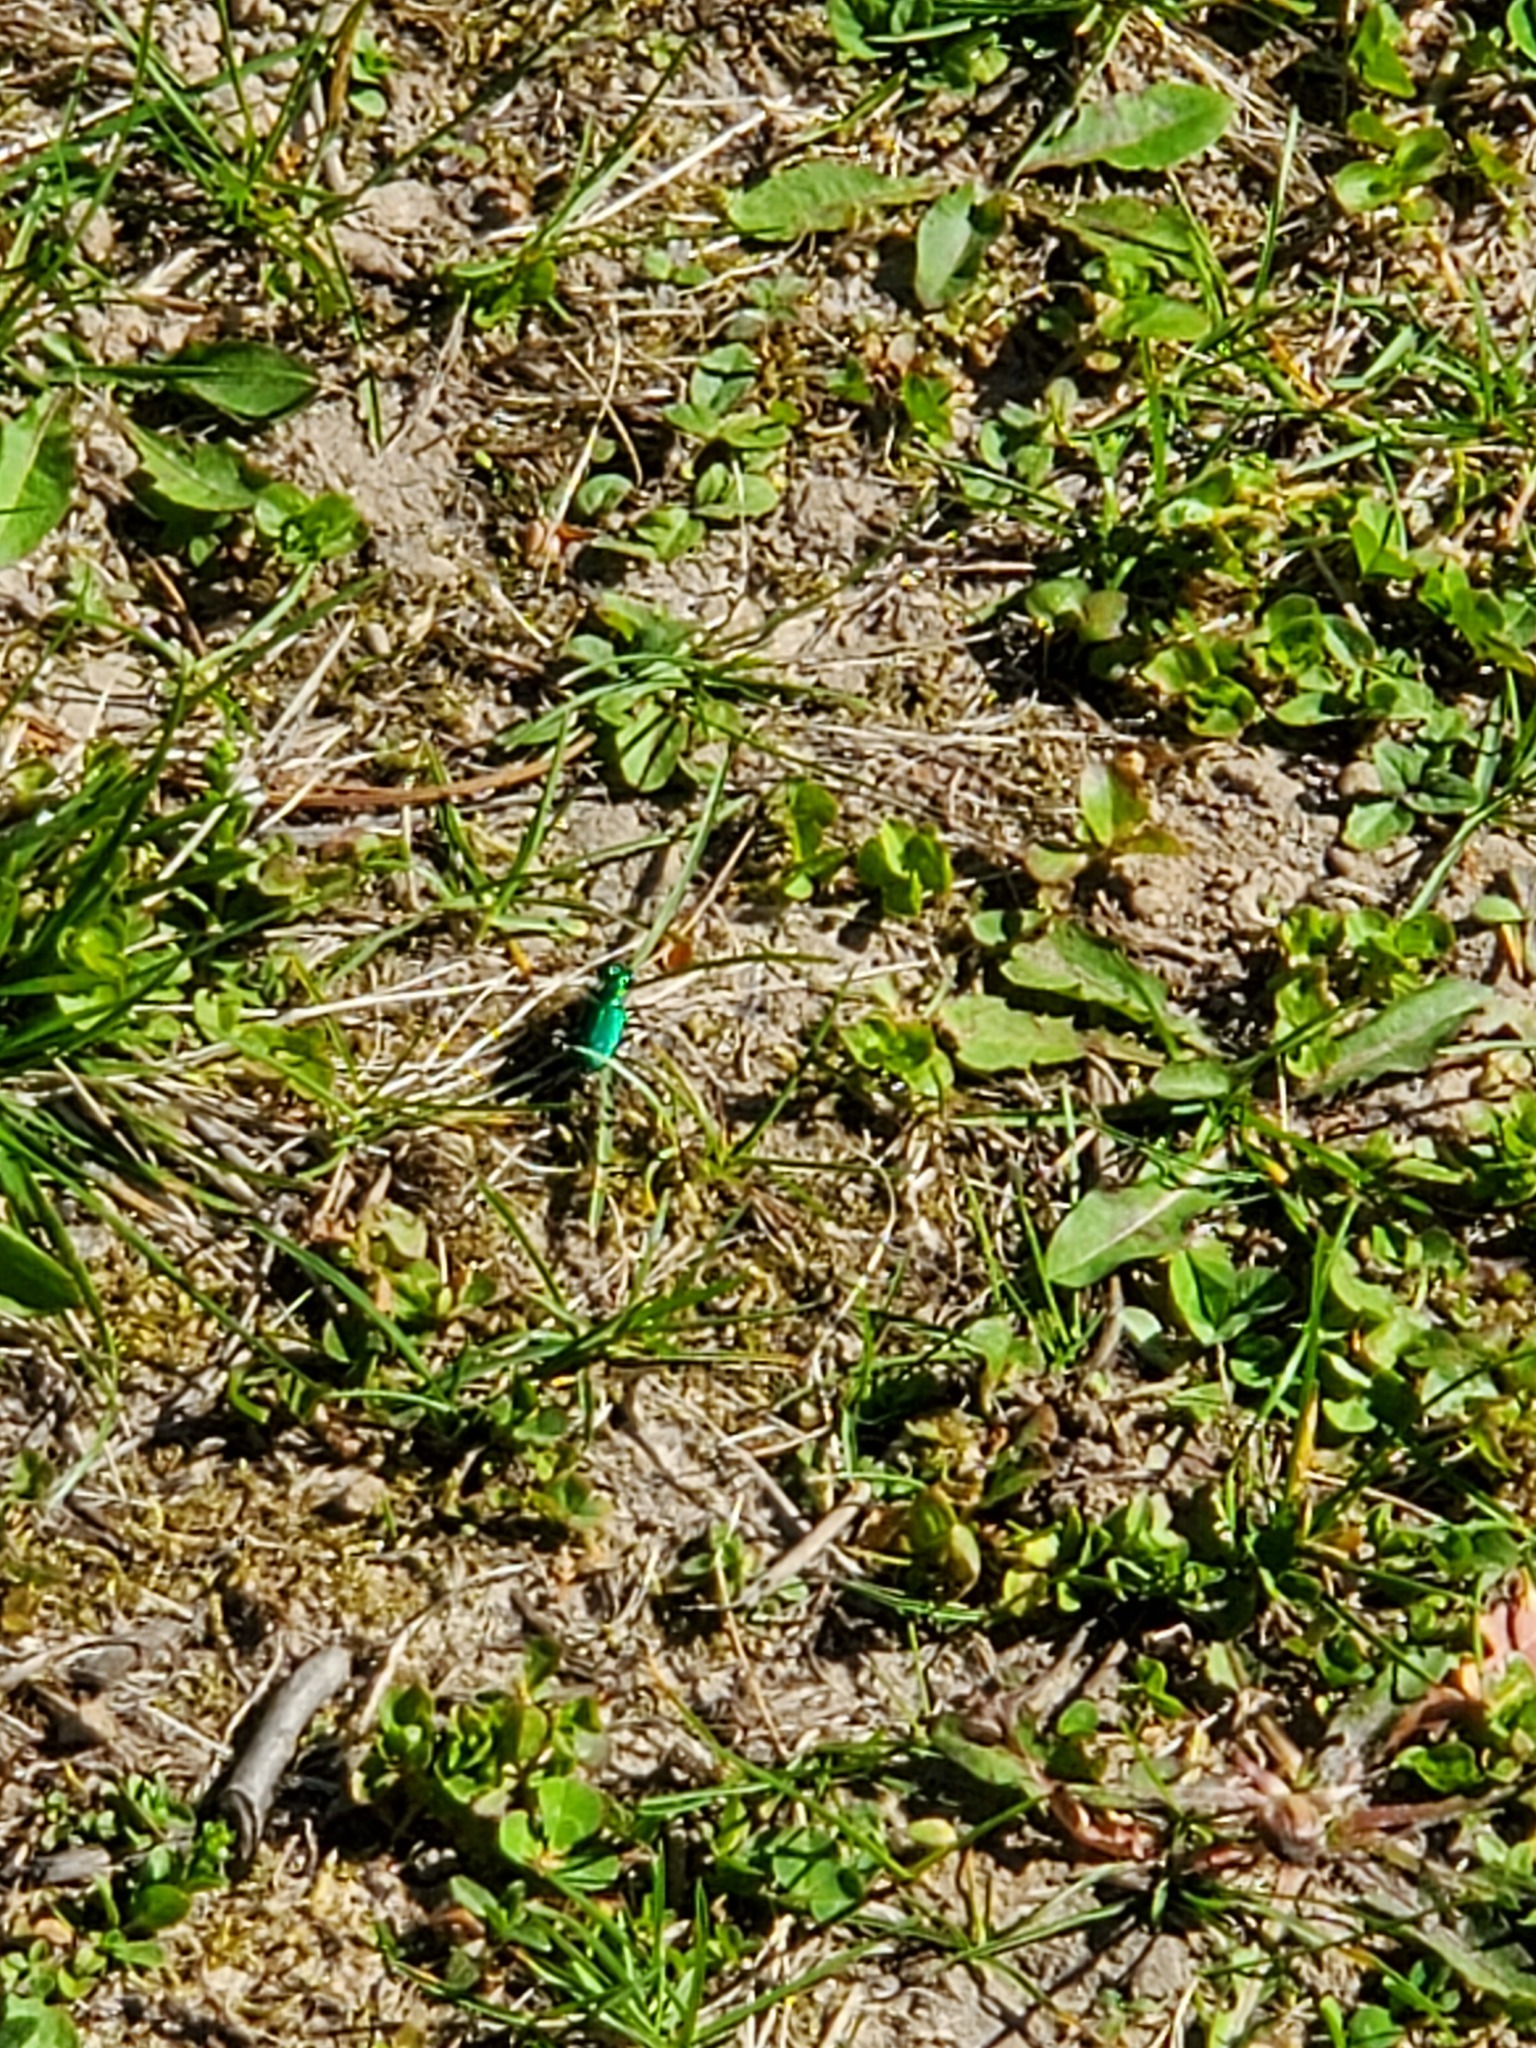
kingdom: Animalia
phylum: Arthropoda
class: Insecta
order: Coleoptera
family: Carabidae
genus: Cicindela
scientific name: Cicindela sexguttata
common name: Six-spotted tiger beetle
